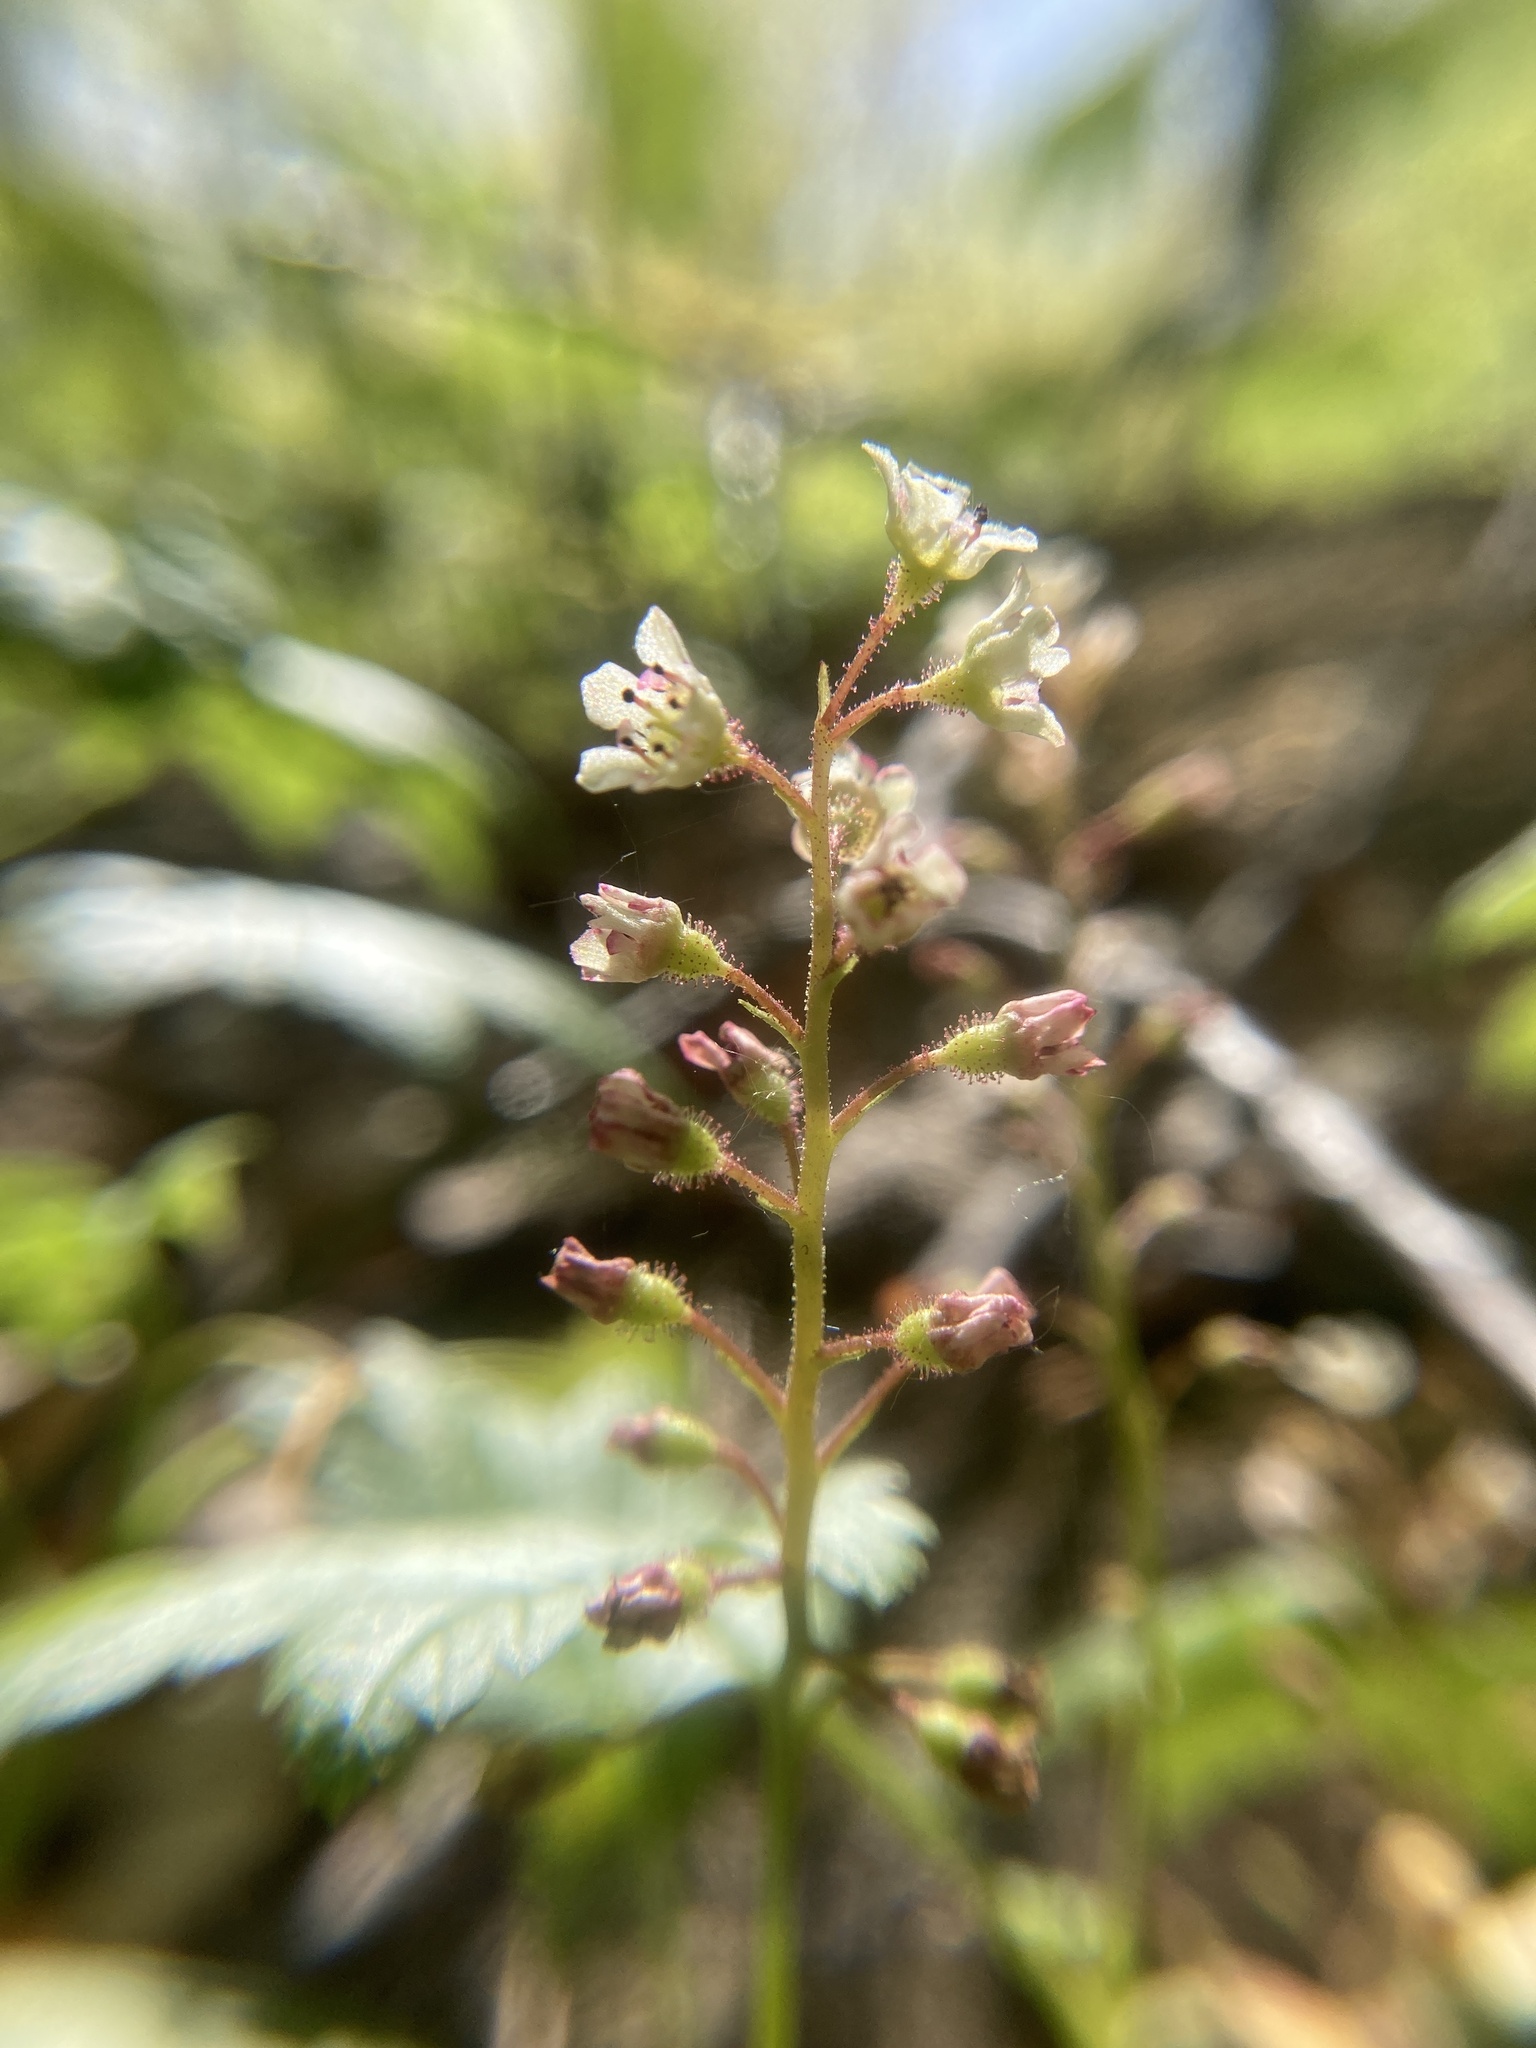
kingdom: Plantae
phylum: Tracheophyta
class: Magnoliopsida
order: Saxifragales
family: Grossulariaceae
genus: Ribes
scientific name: Ribes glandulosum
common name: Skunk currant
